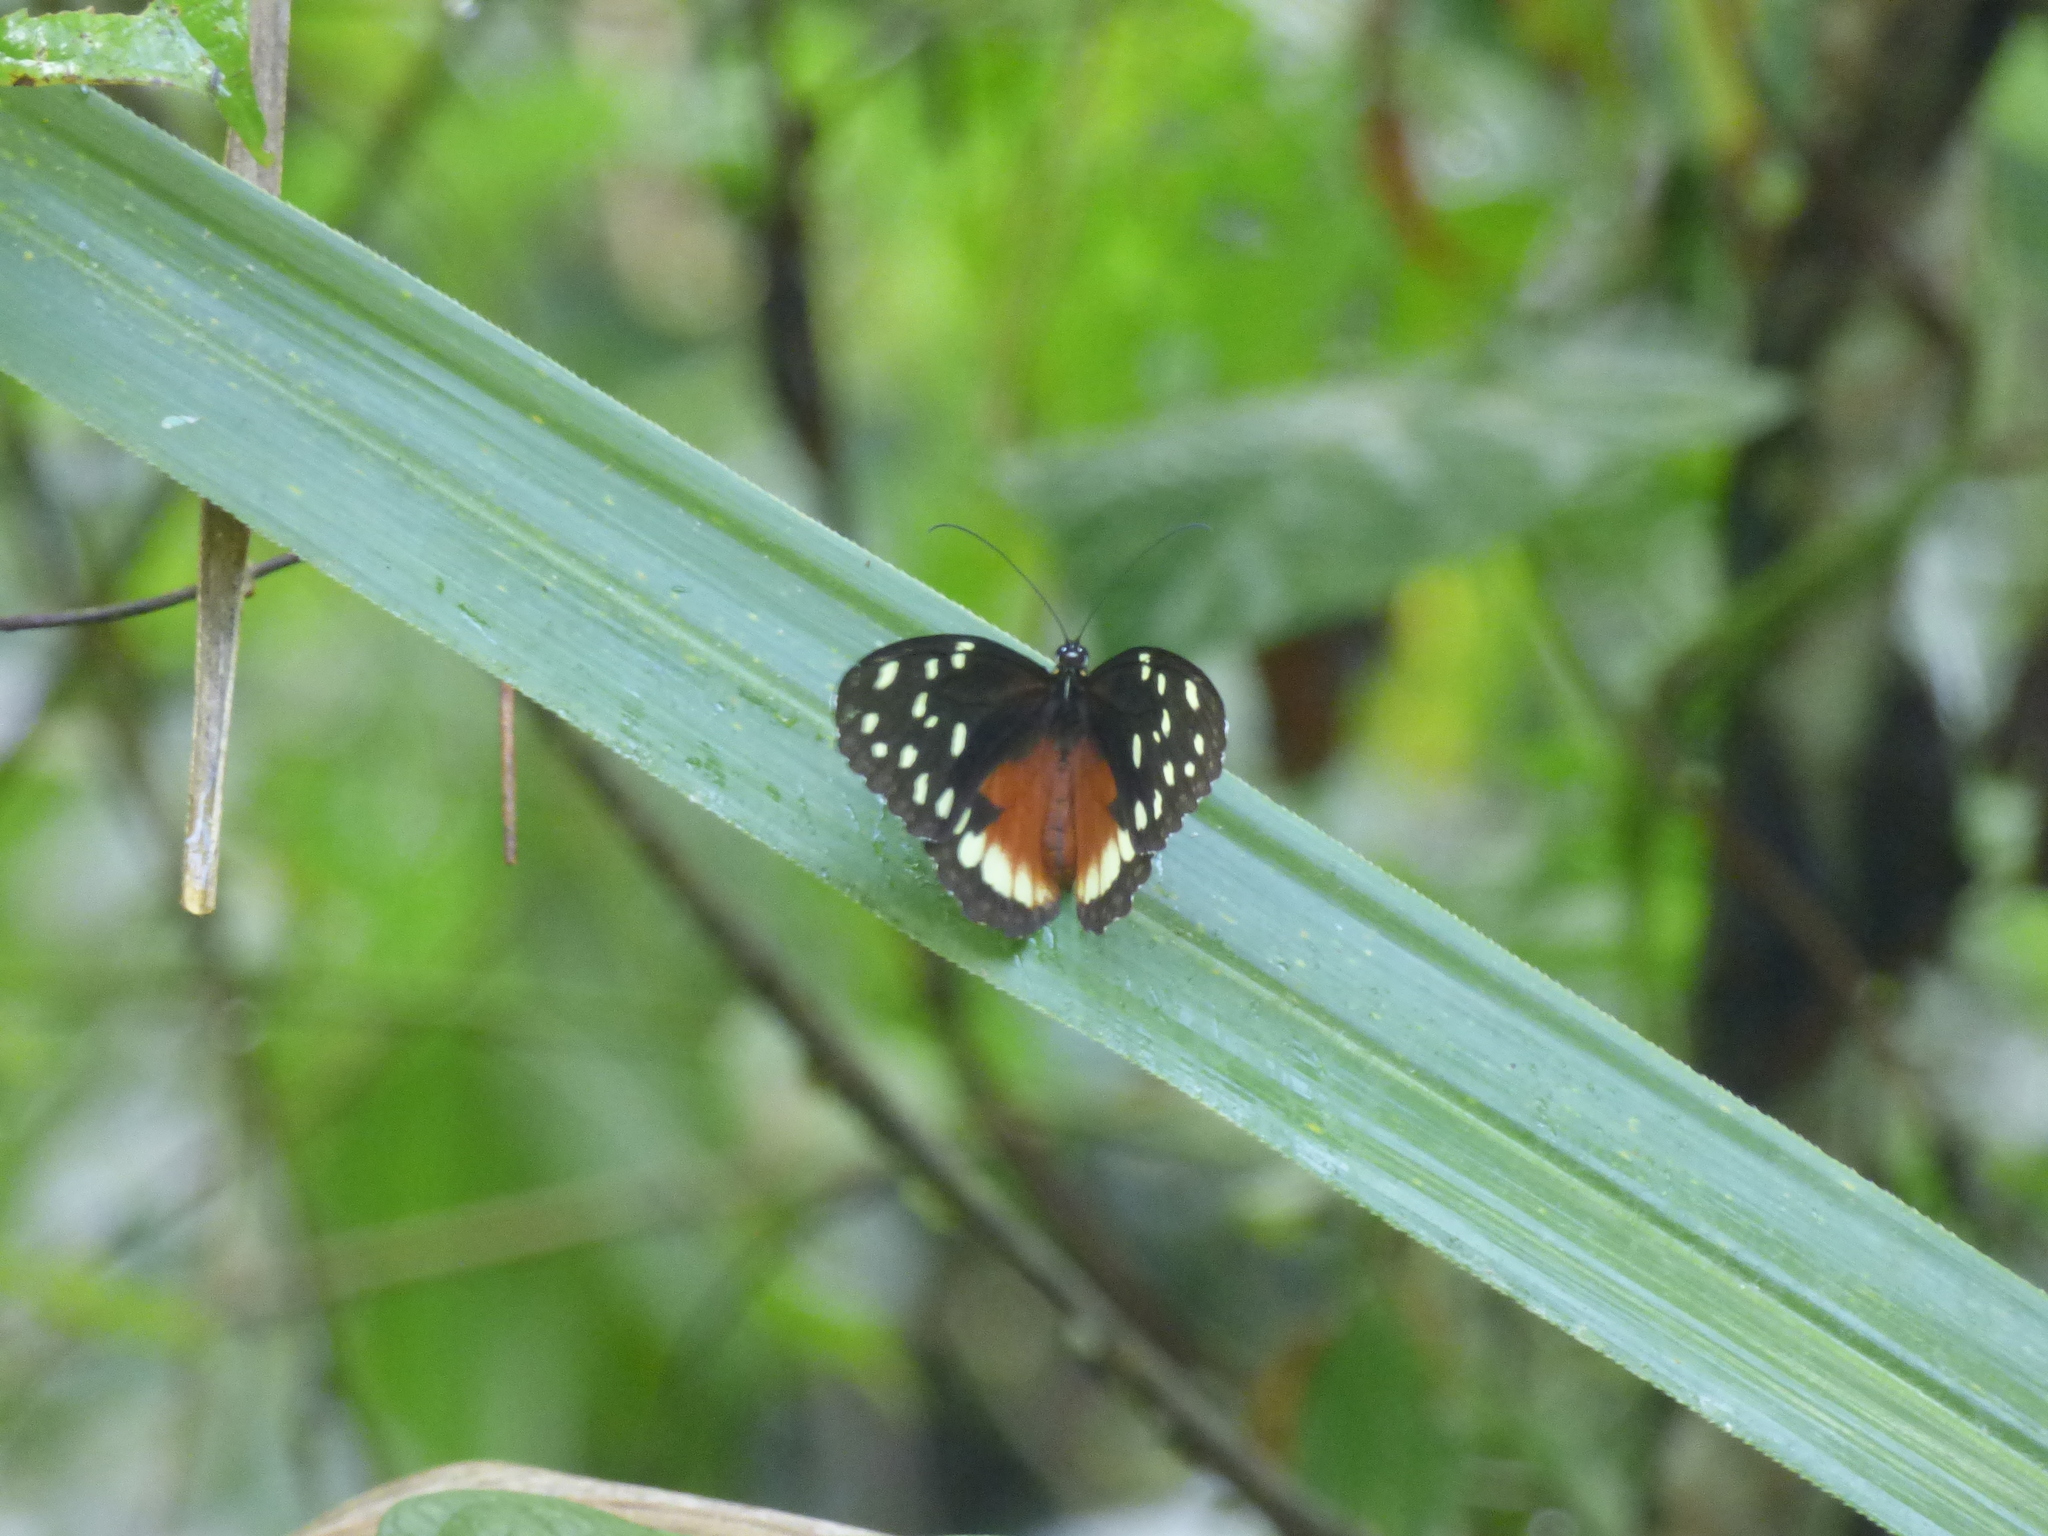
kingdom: Animalia
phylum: Arthropoda
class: Insecta
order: Lepidoptera
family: Nymphalidae
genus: Tithorea
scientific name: Tithorea tarricina
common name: Cream-spotted tigerwing
